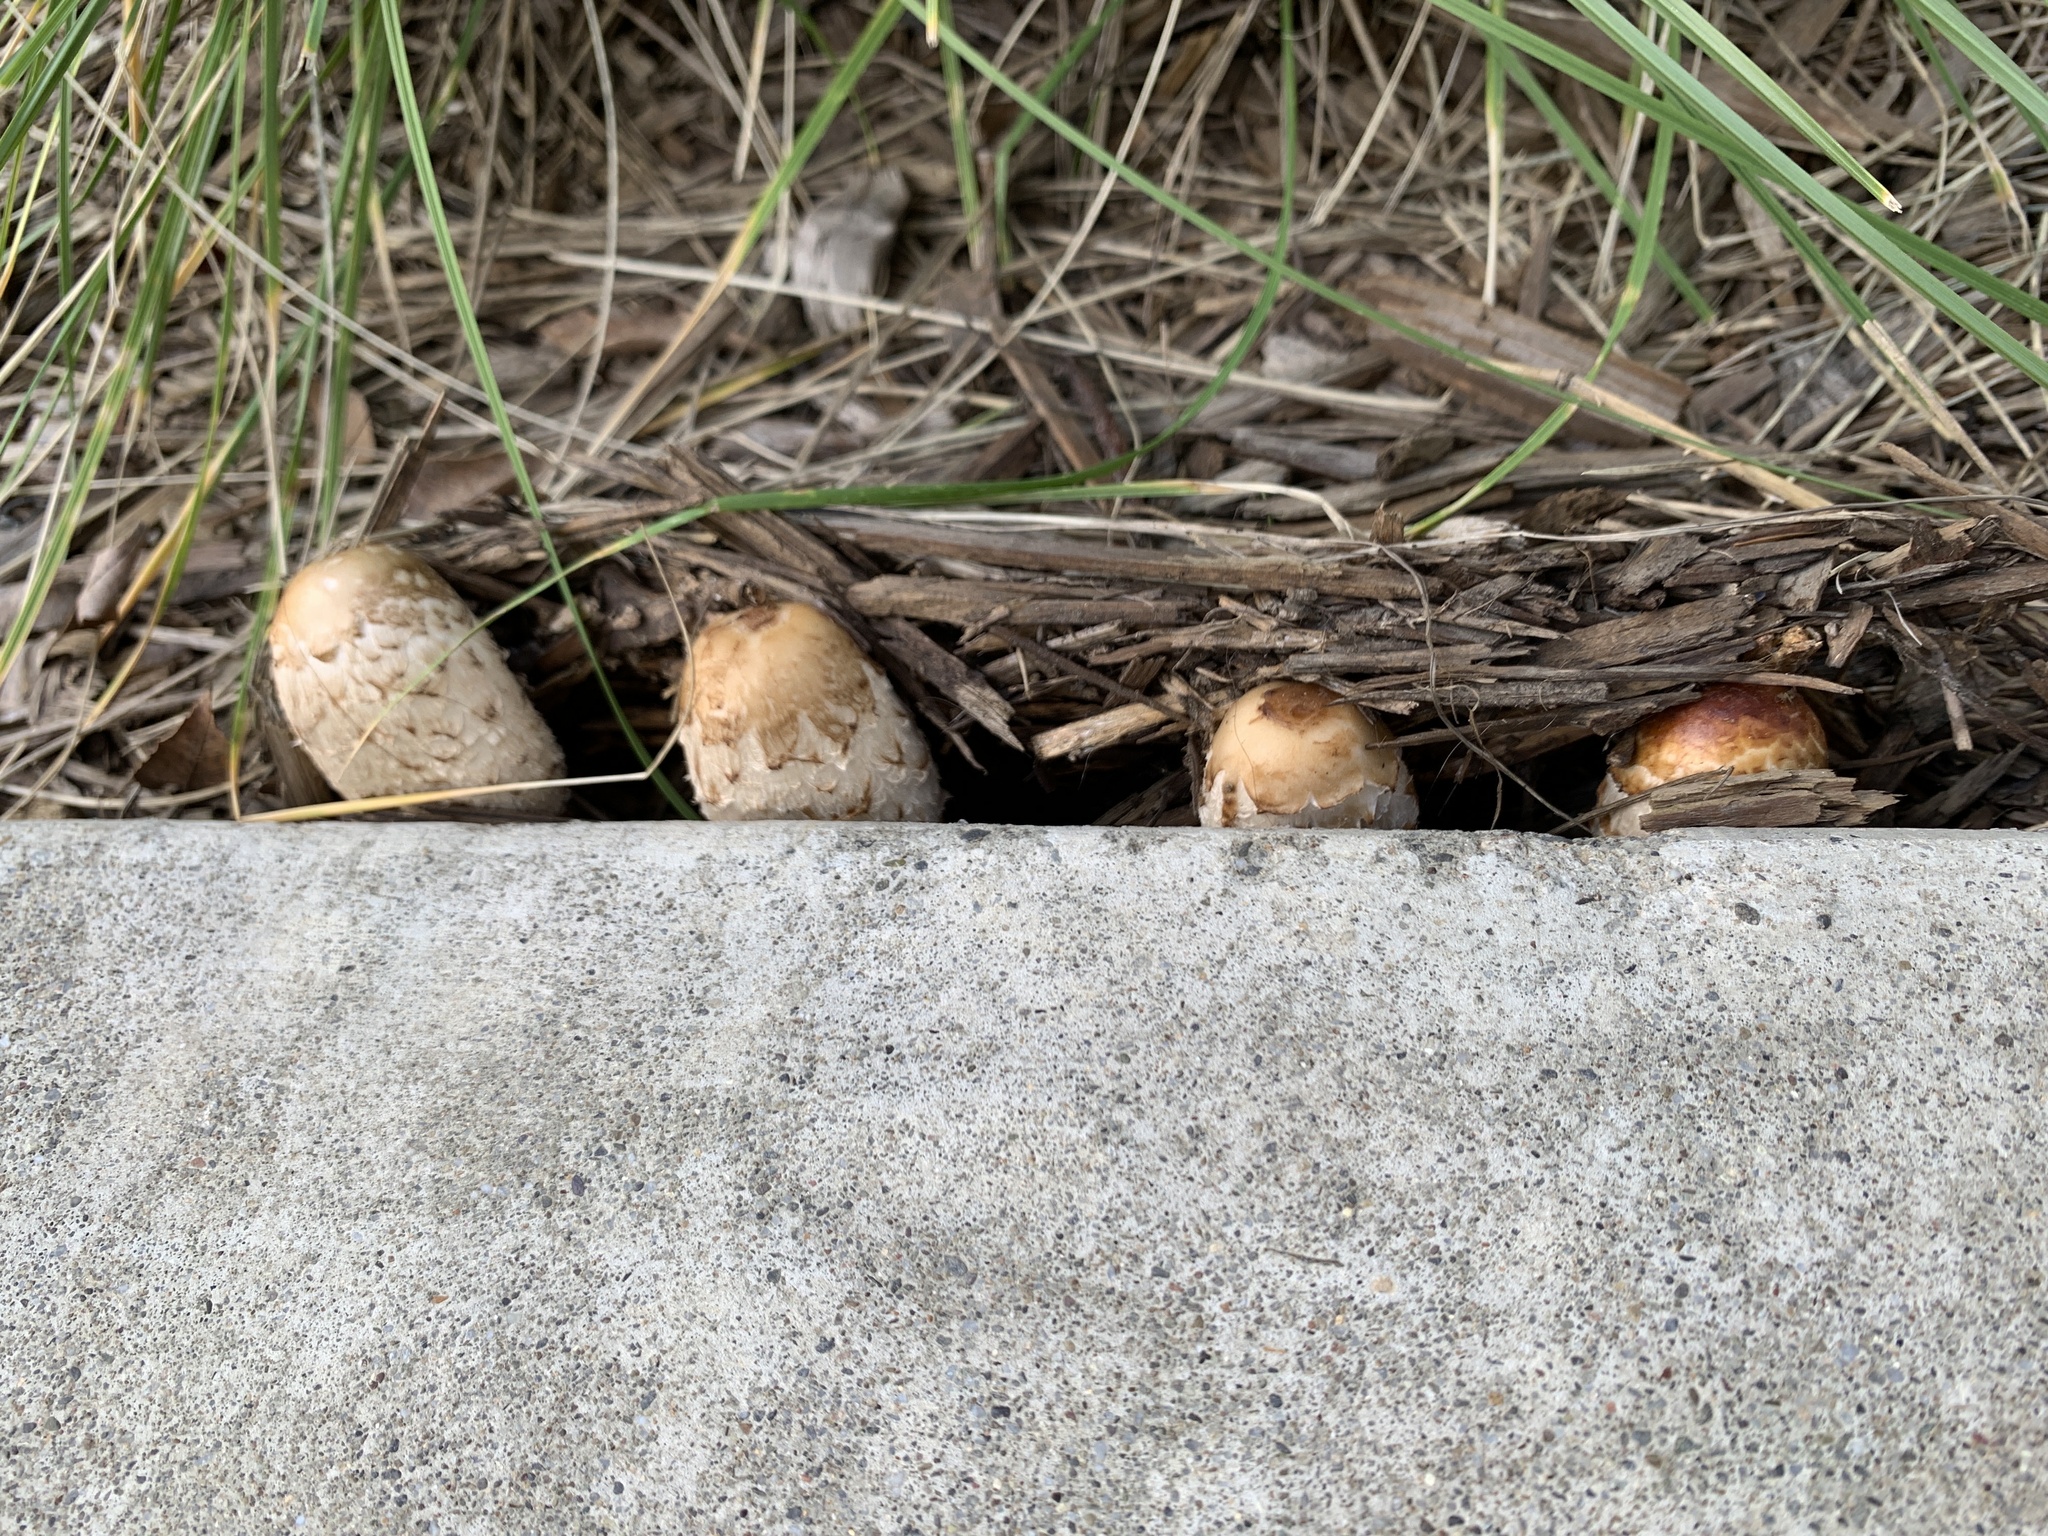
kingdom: Fungi
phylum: Basidiomycota
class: Agaricomycetes
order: Agaricales
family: Agaricaceae
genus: Coprinus
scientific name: Coprinus comatus
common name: Lawyer's wig
